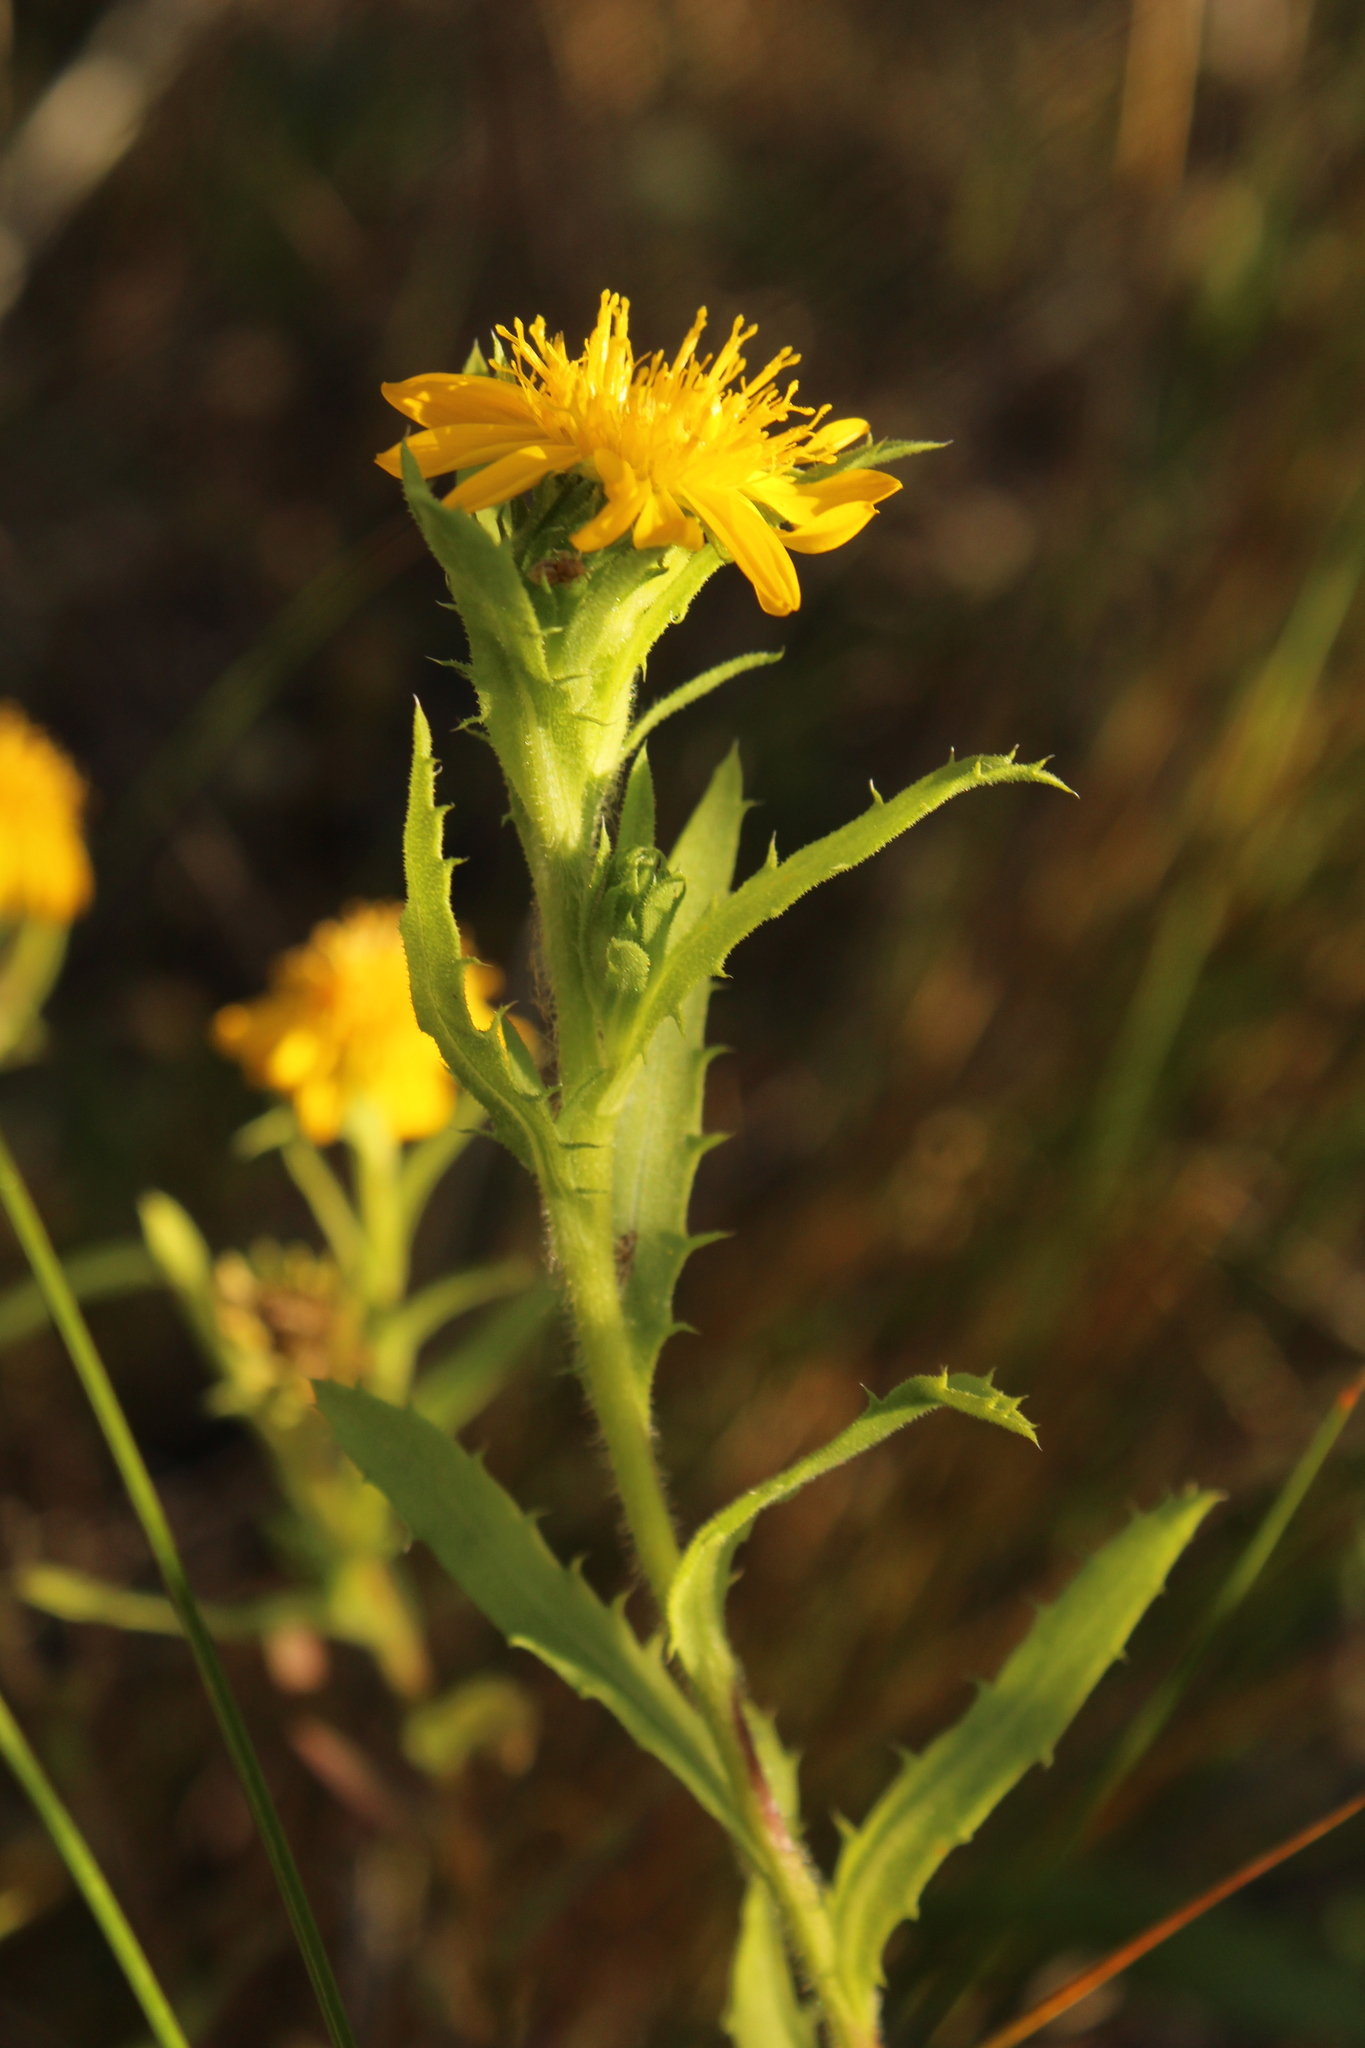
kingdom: Plantae
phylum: Tracheophyta
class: Magnoliopsida
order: Asterales
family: Asteraceae
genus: Rayjacksonia
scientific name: Rayjacksonia phyllocephala
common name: Gulf coast camphor daisy
